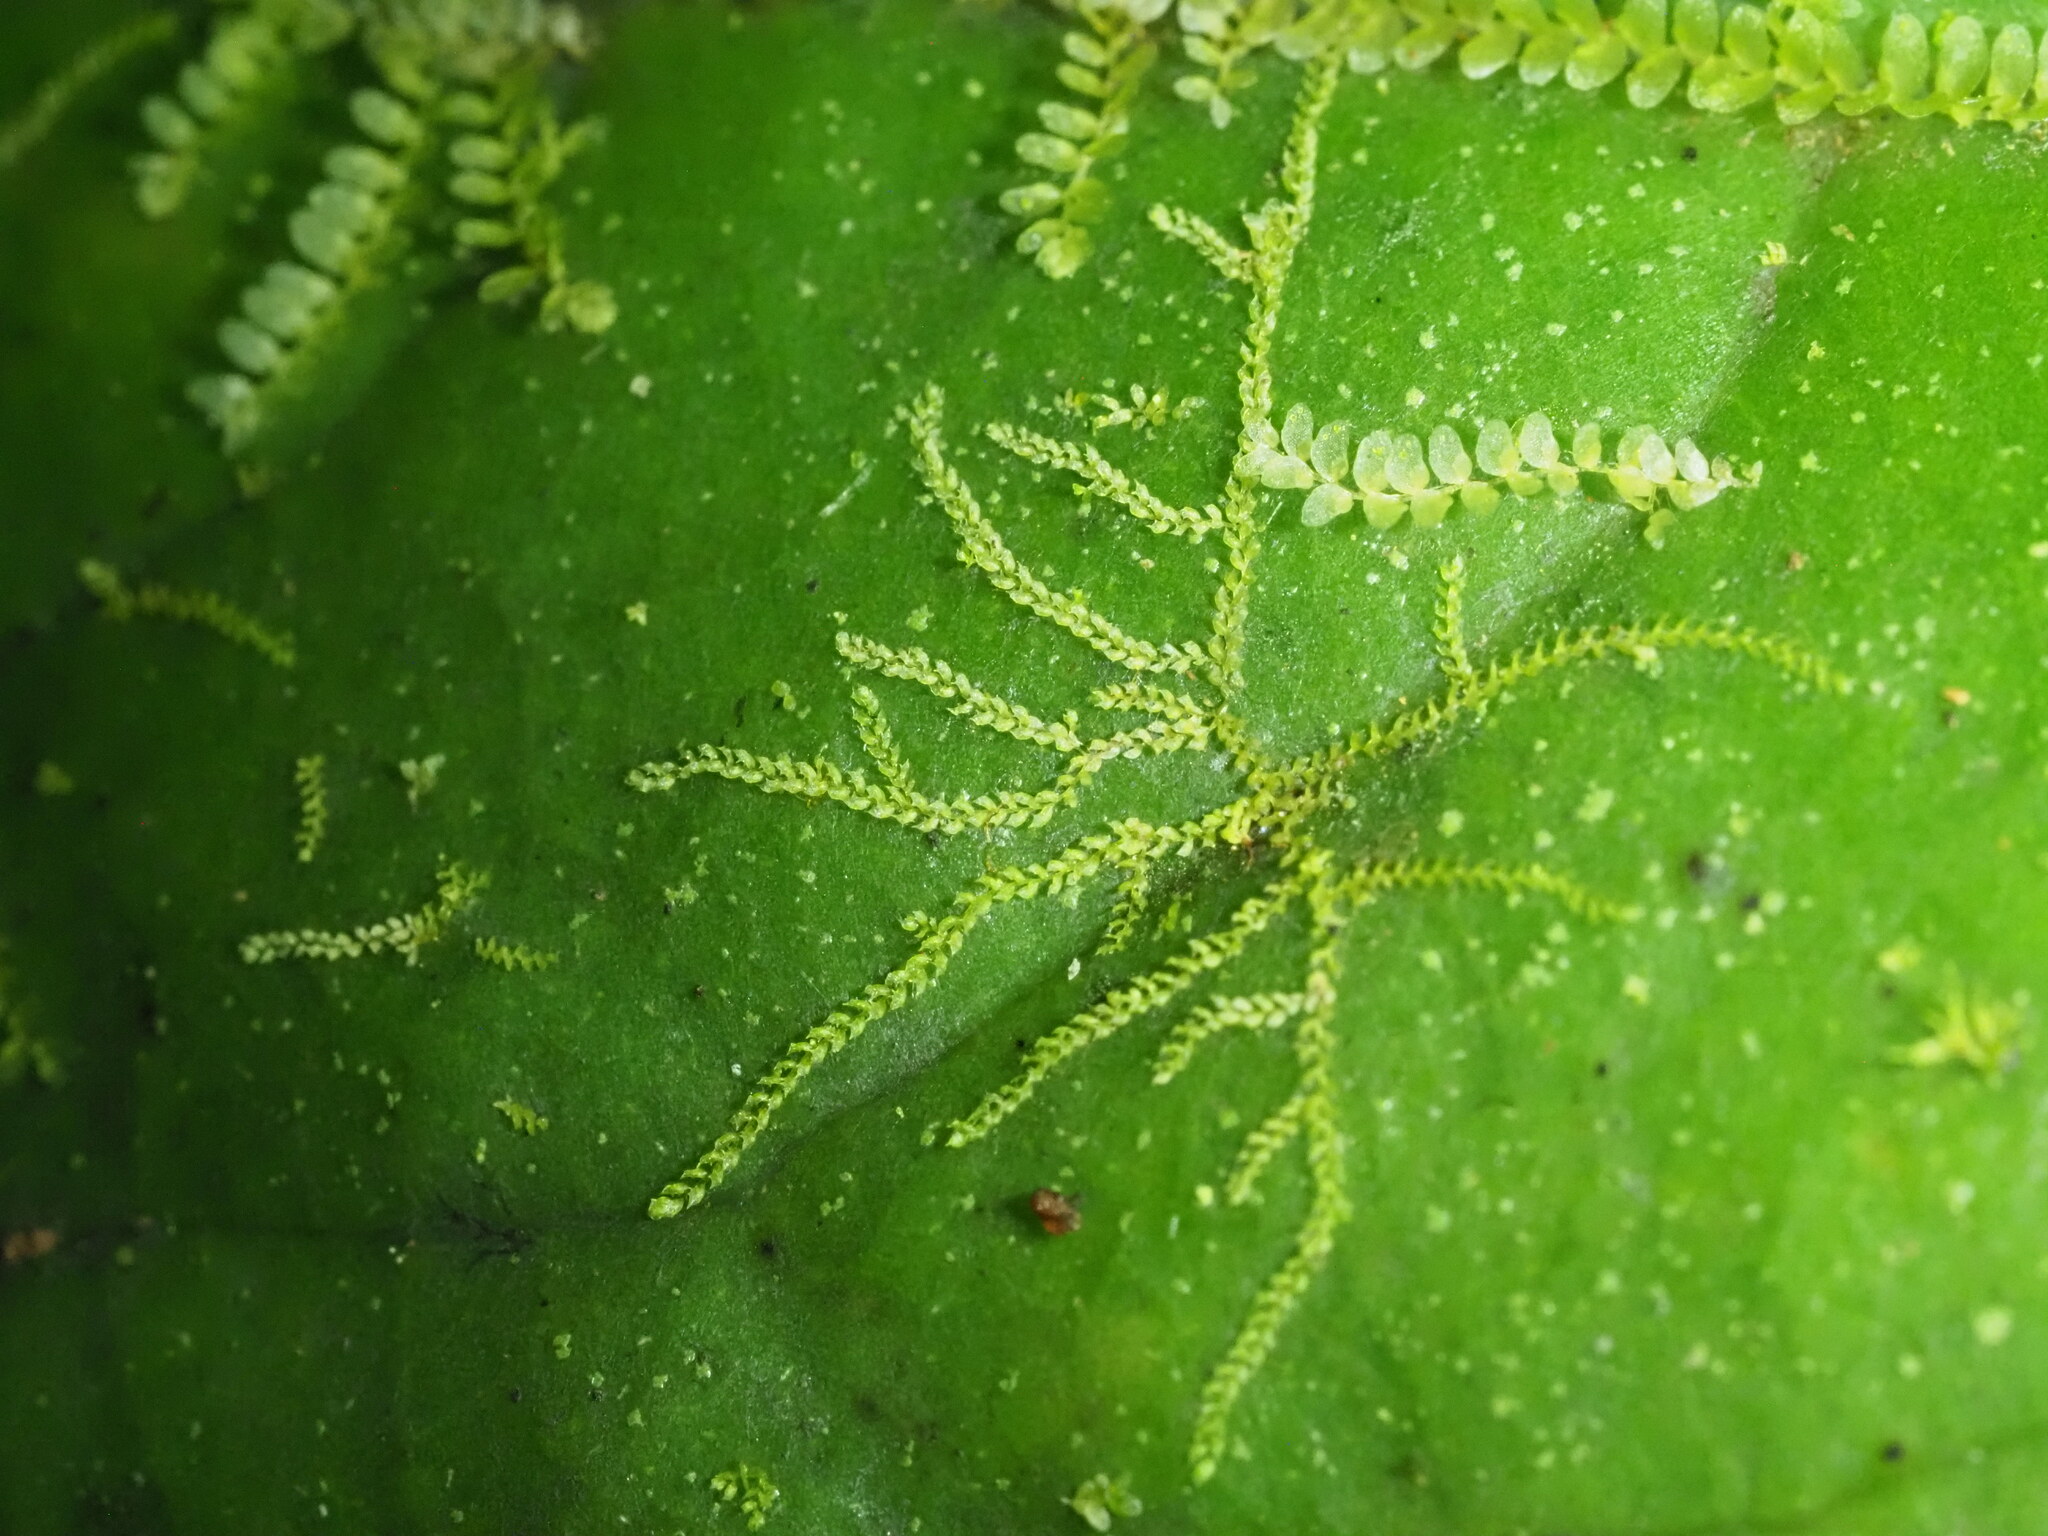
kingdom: Plantae
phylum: Marchantiophyta
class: Jungermanniopsida
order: Porellales
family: Lejeuneaceae
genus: Drepanolejeunea
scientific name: Drepanolejeunea ungulata
